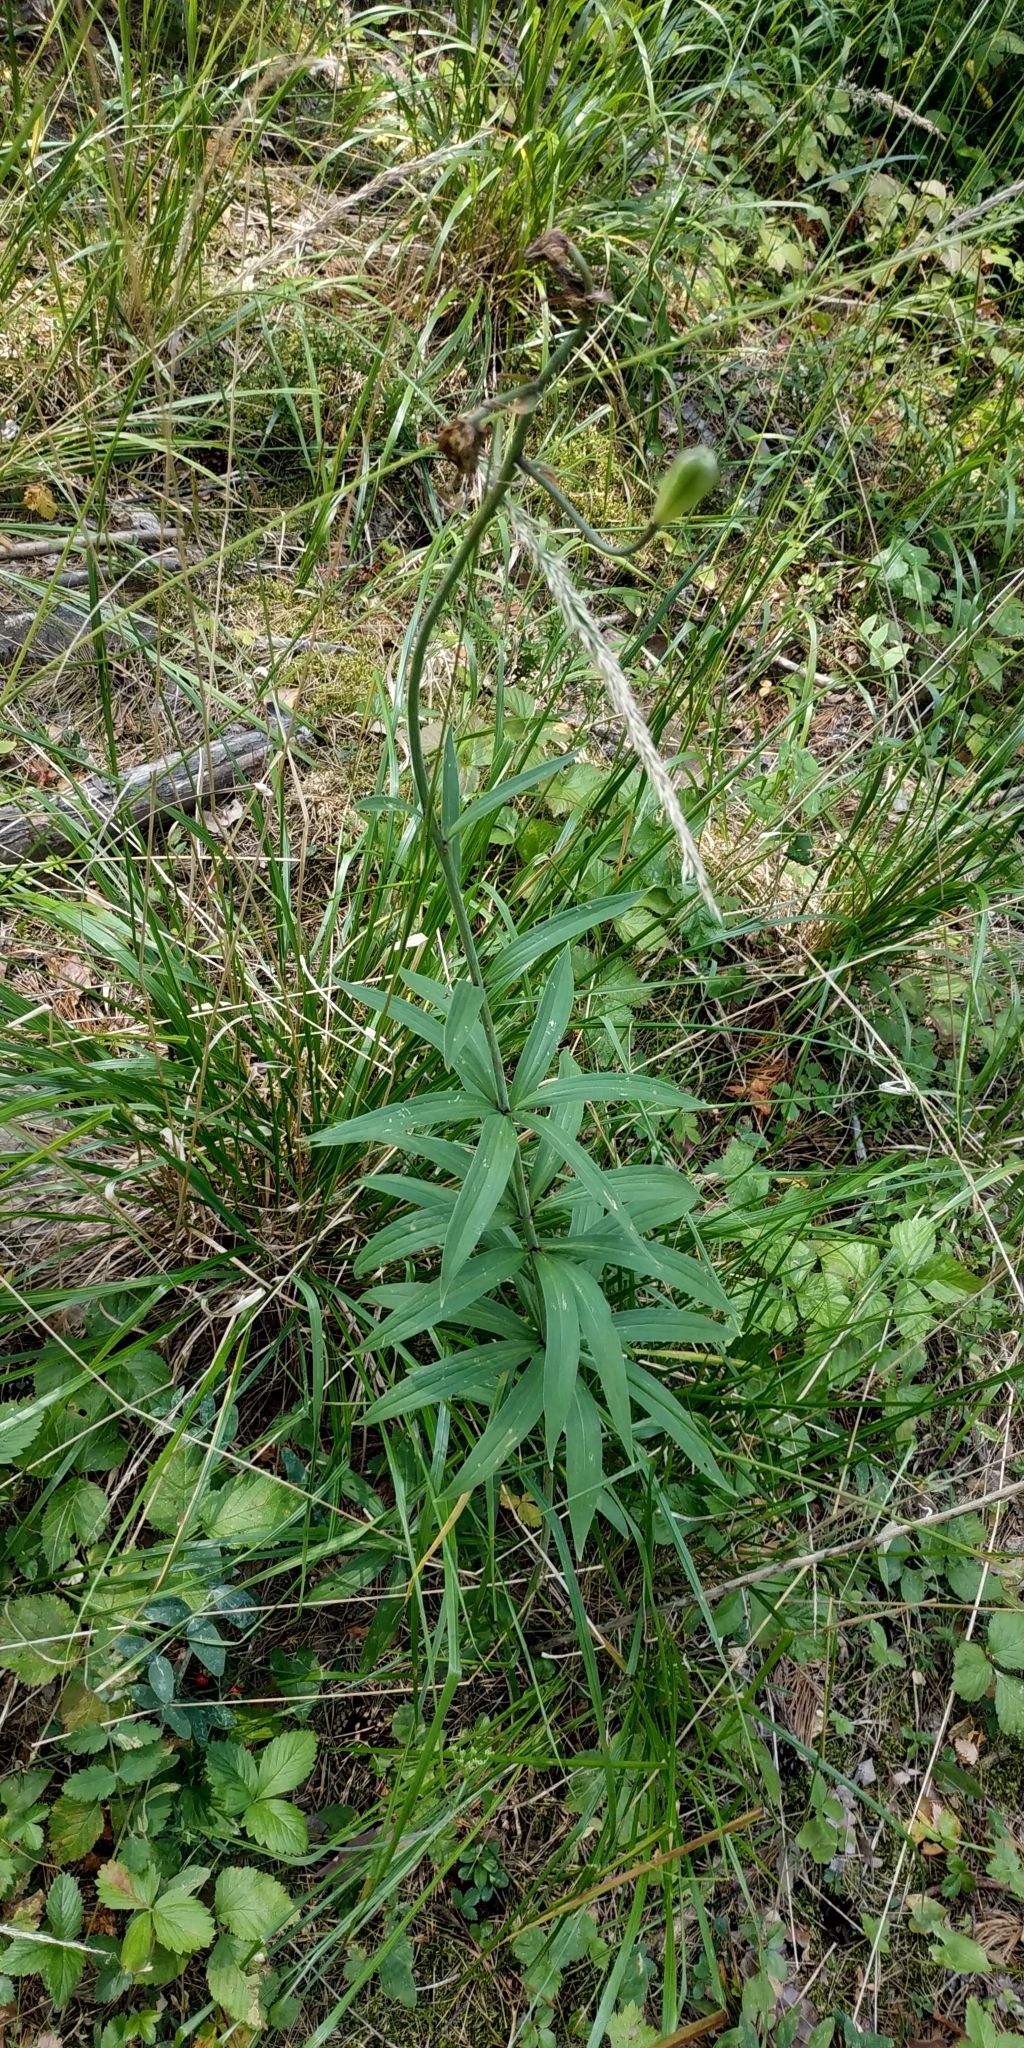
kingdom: Plantae
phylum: Tracheophyta
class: Liliopsida
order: Liliales
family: Liliaceae
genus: Lilium
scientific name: Lilium martagon
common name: Martagon lily
